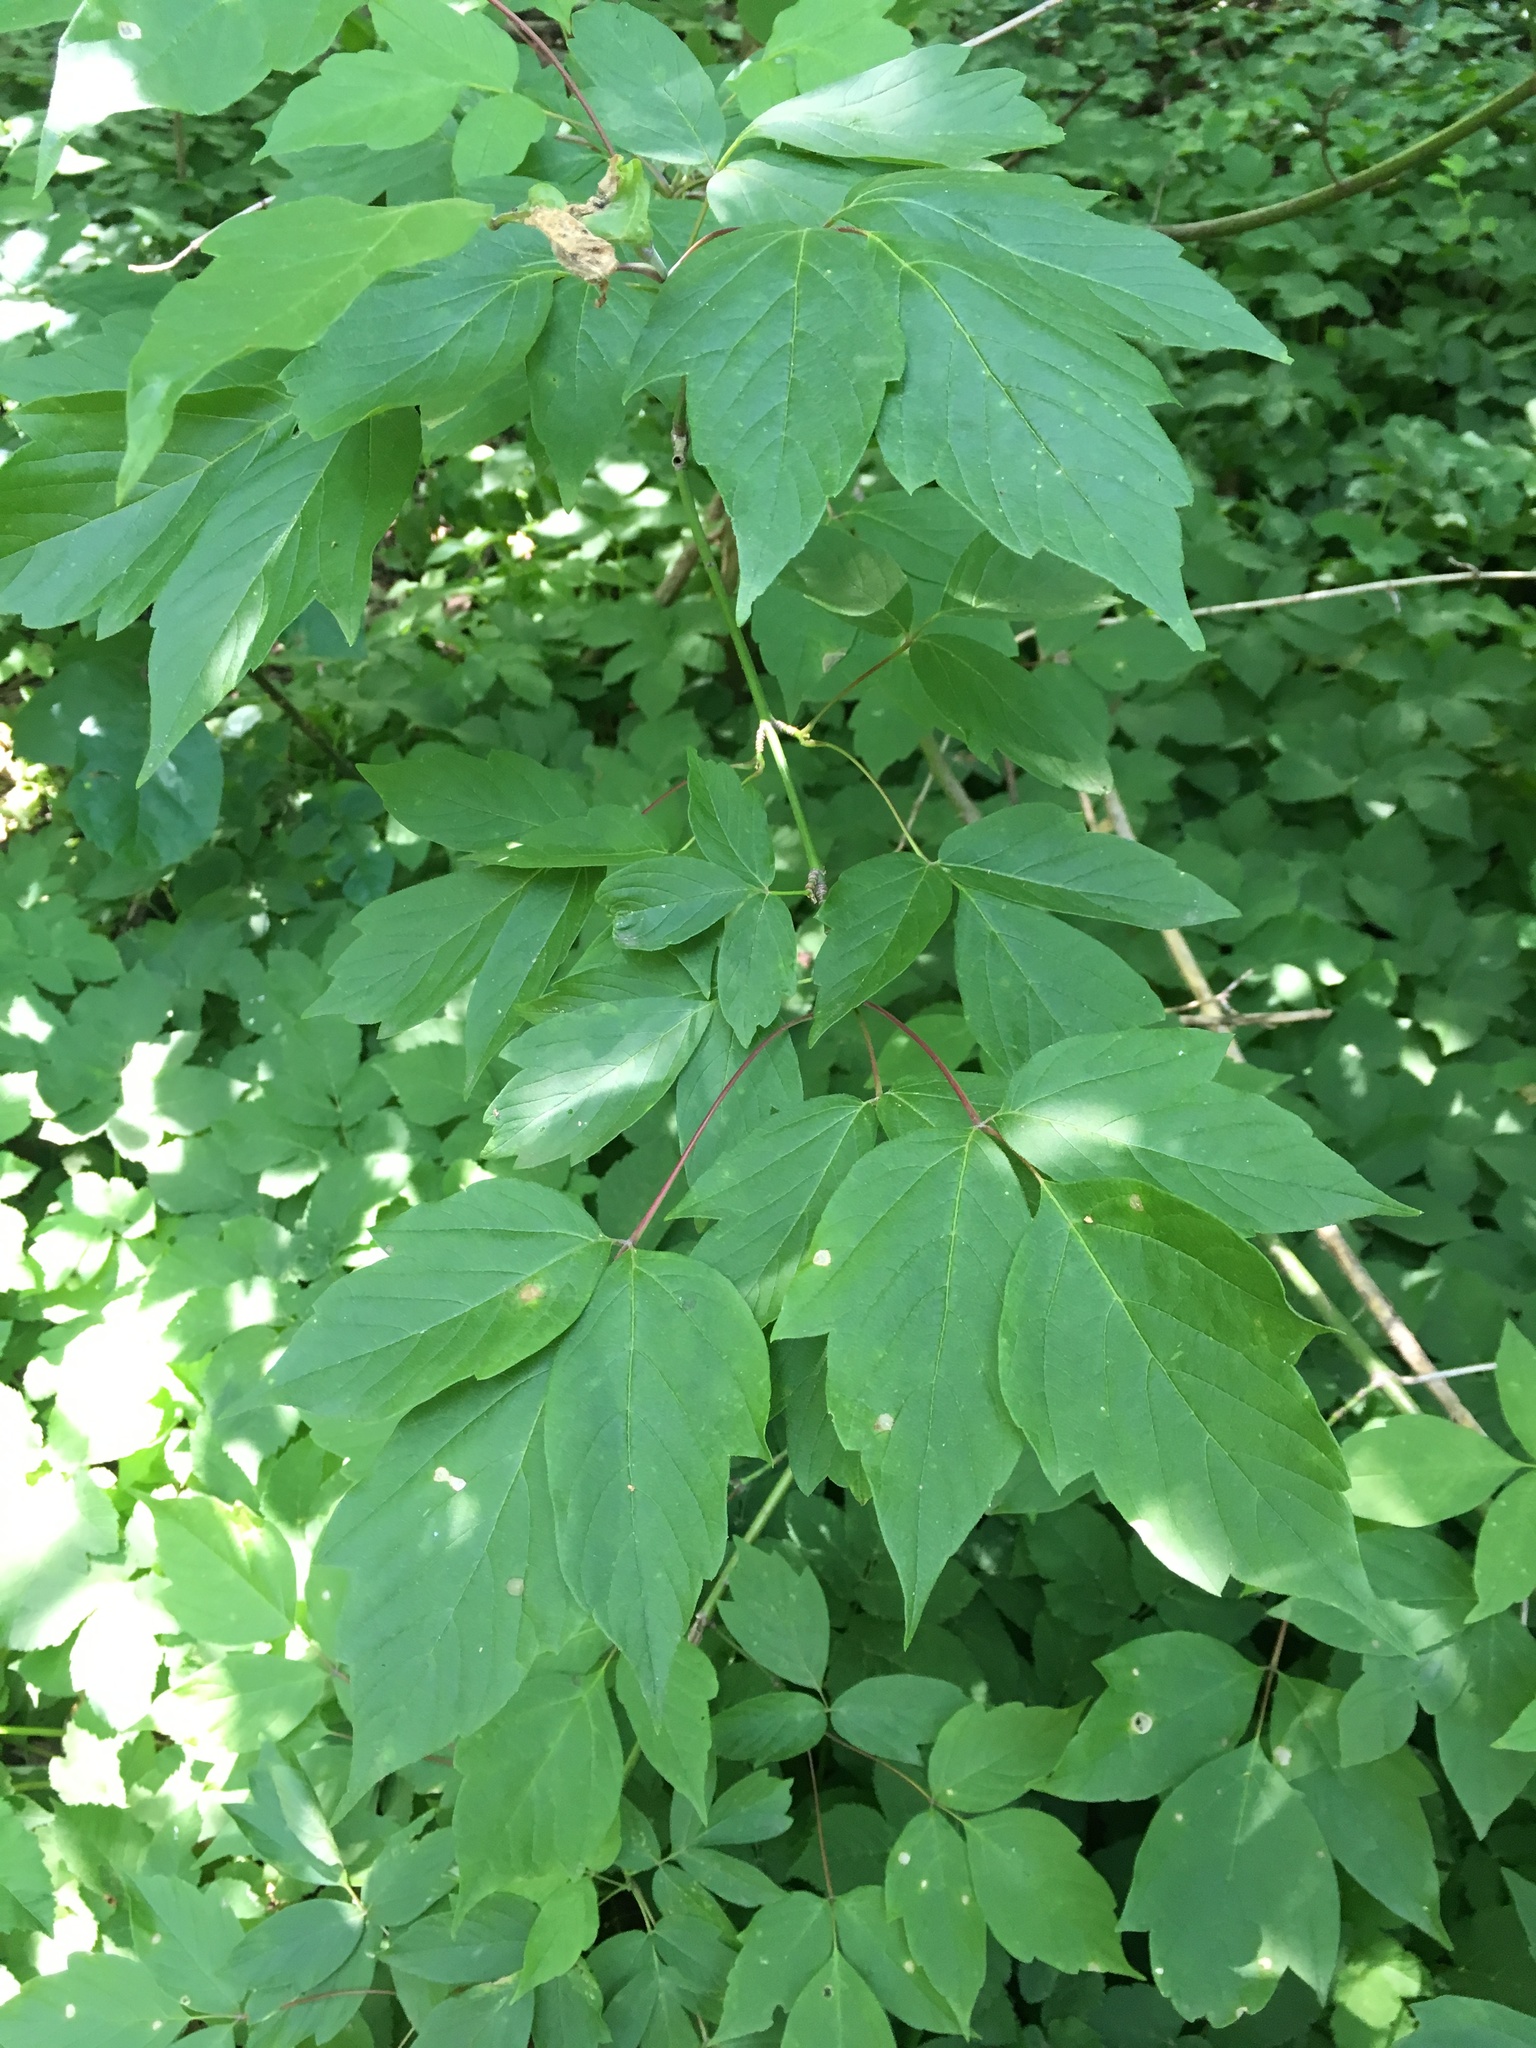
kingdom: Plantae
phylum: Tracheophyta
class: Magnoliopsida
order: Sapindales
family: Sapindaceae
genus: Acer
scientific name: Acer negundo
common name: Ashleaf maple
